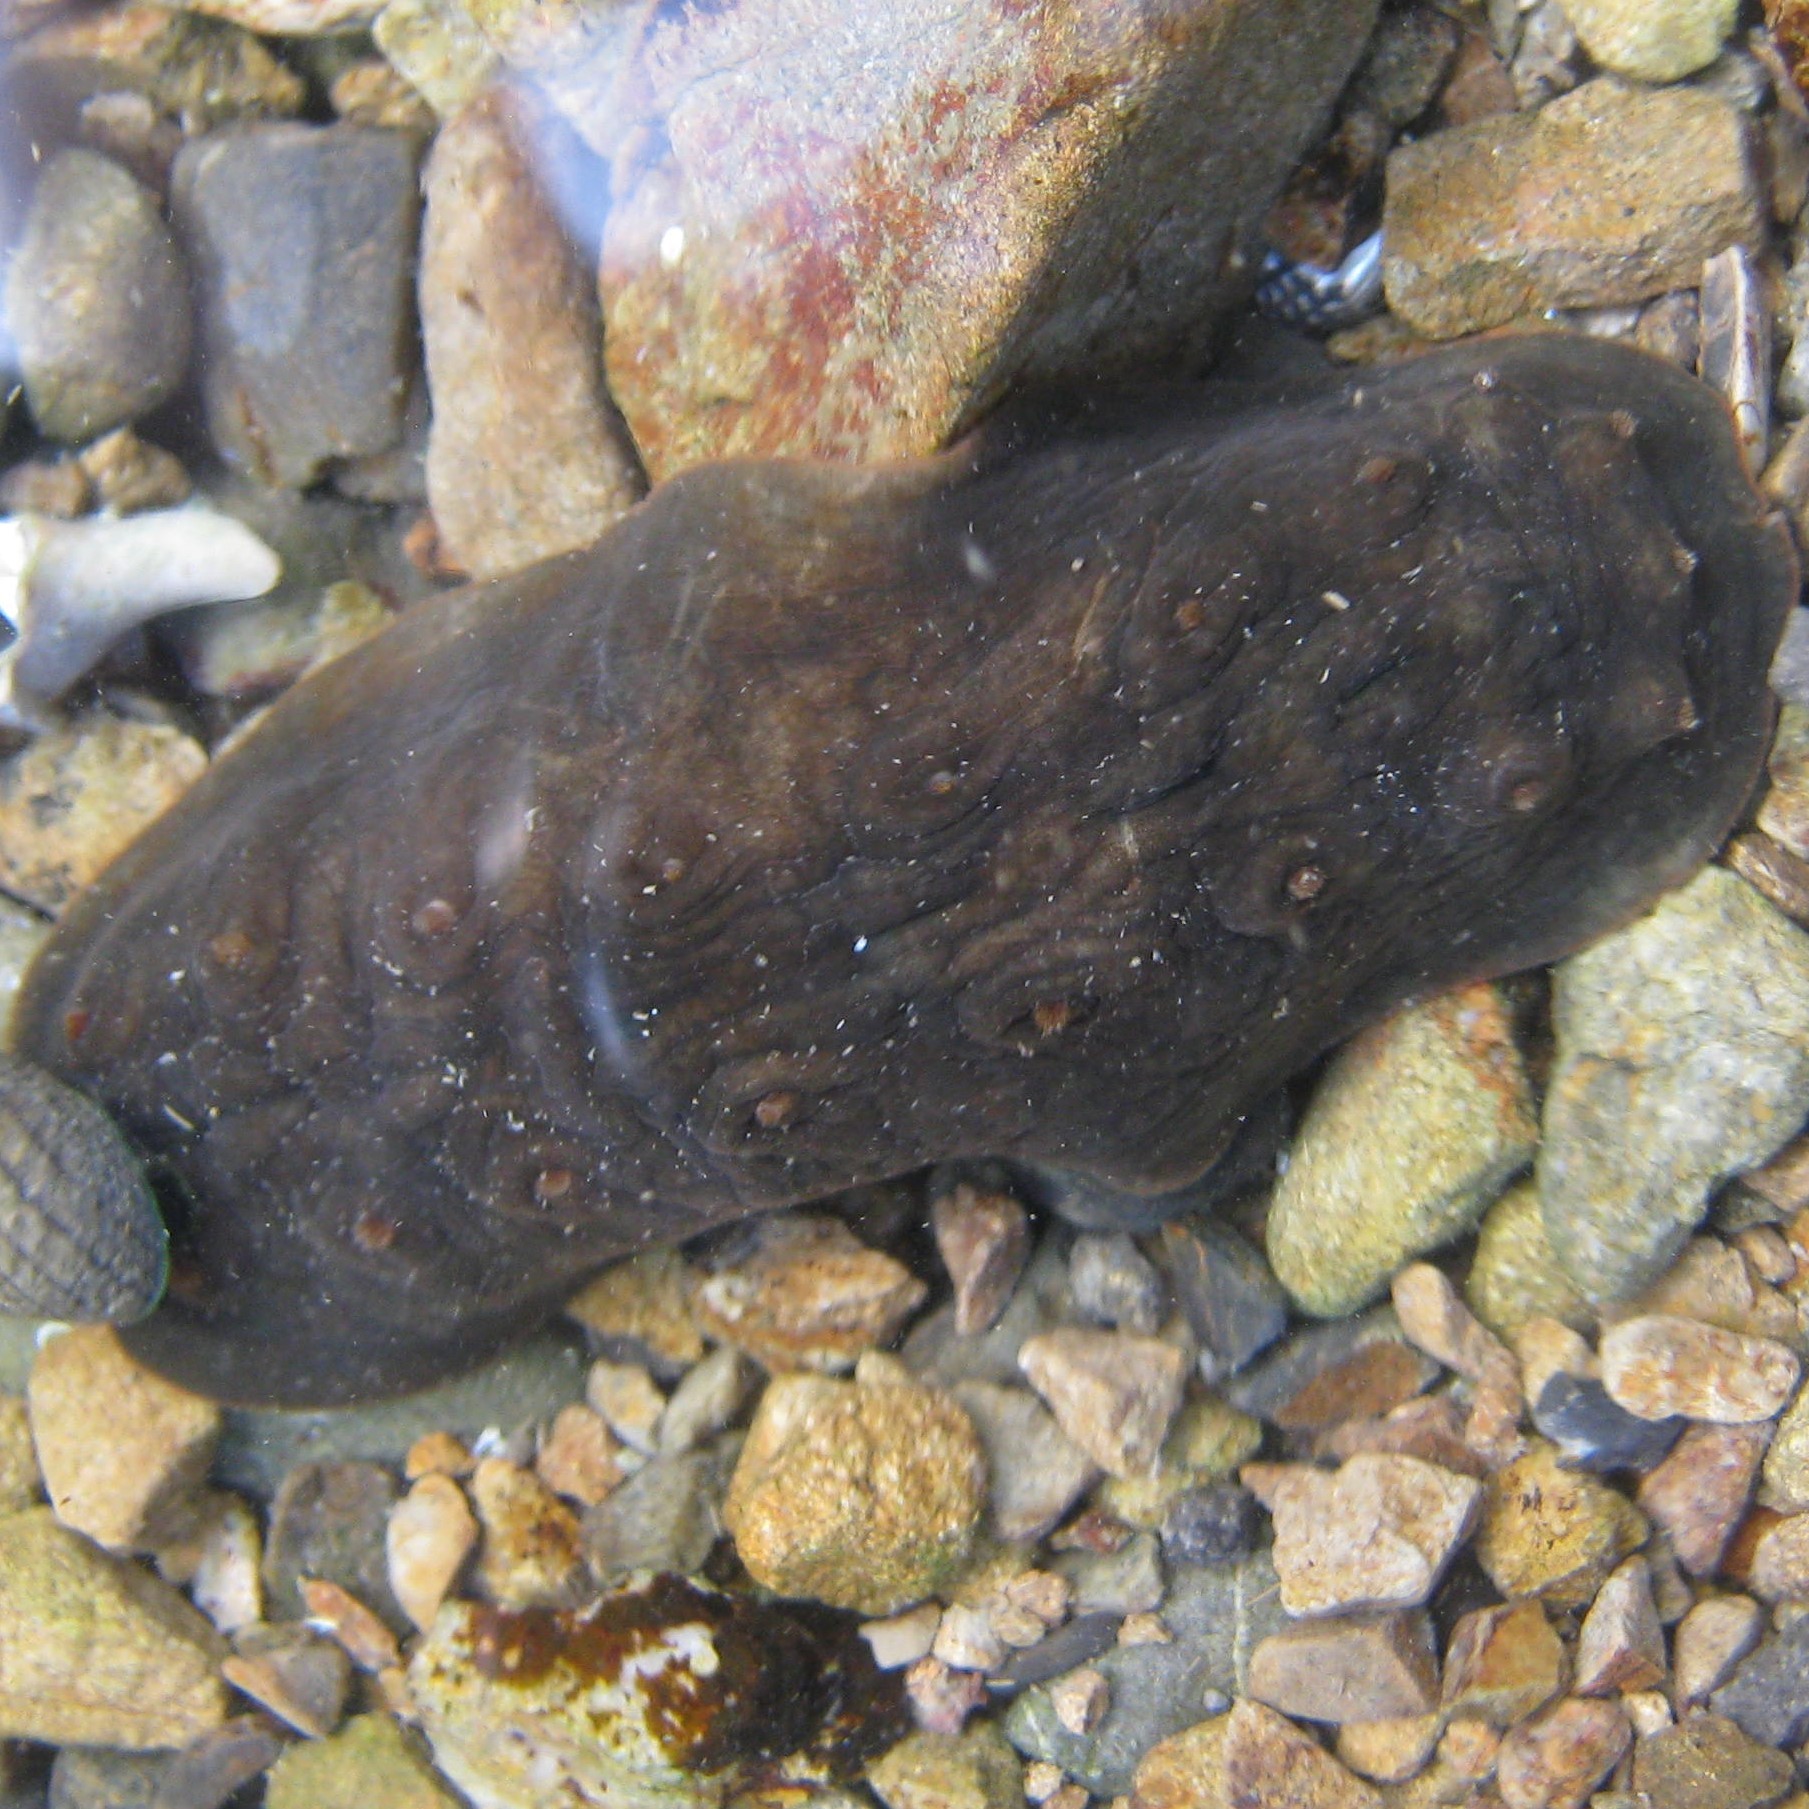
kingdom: Animalia
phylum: Mollusca
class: Polyplacophora
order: Chitonida
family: Acanthochitonidae
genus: Cryptoconchus
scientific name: Cryptoconchus porosus
